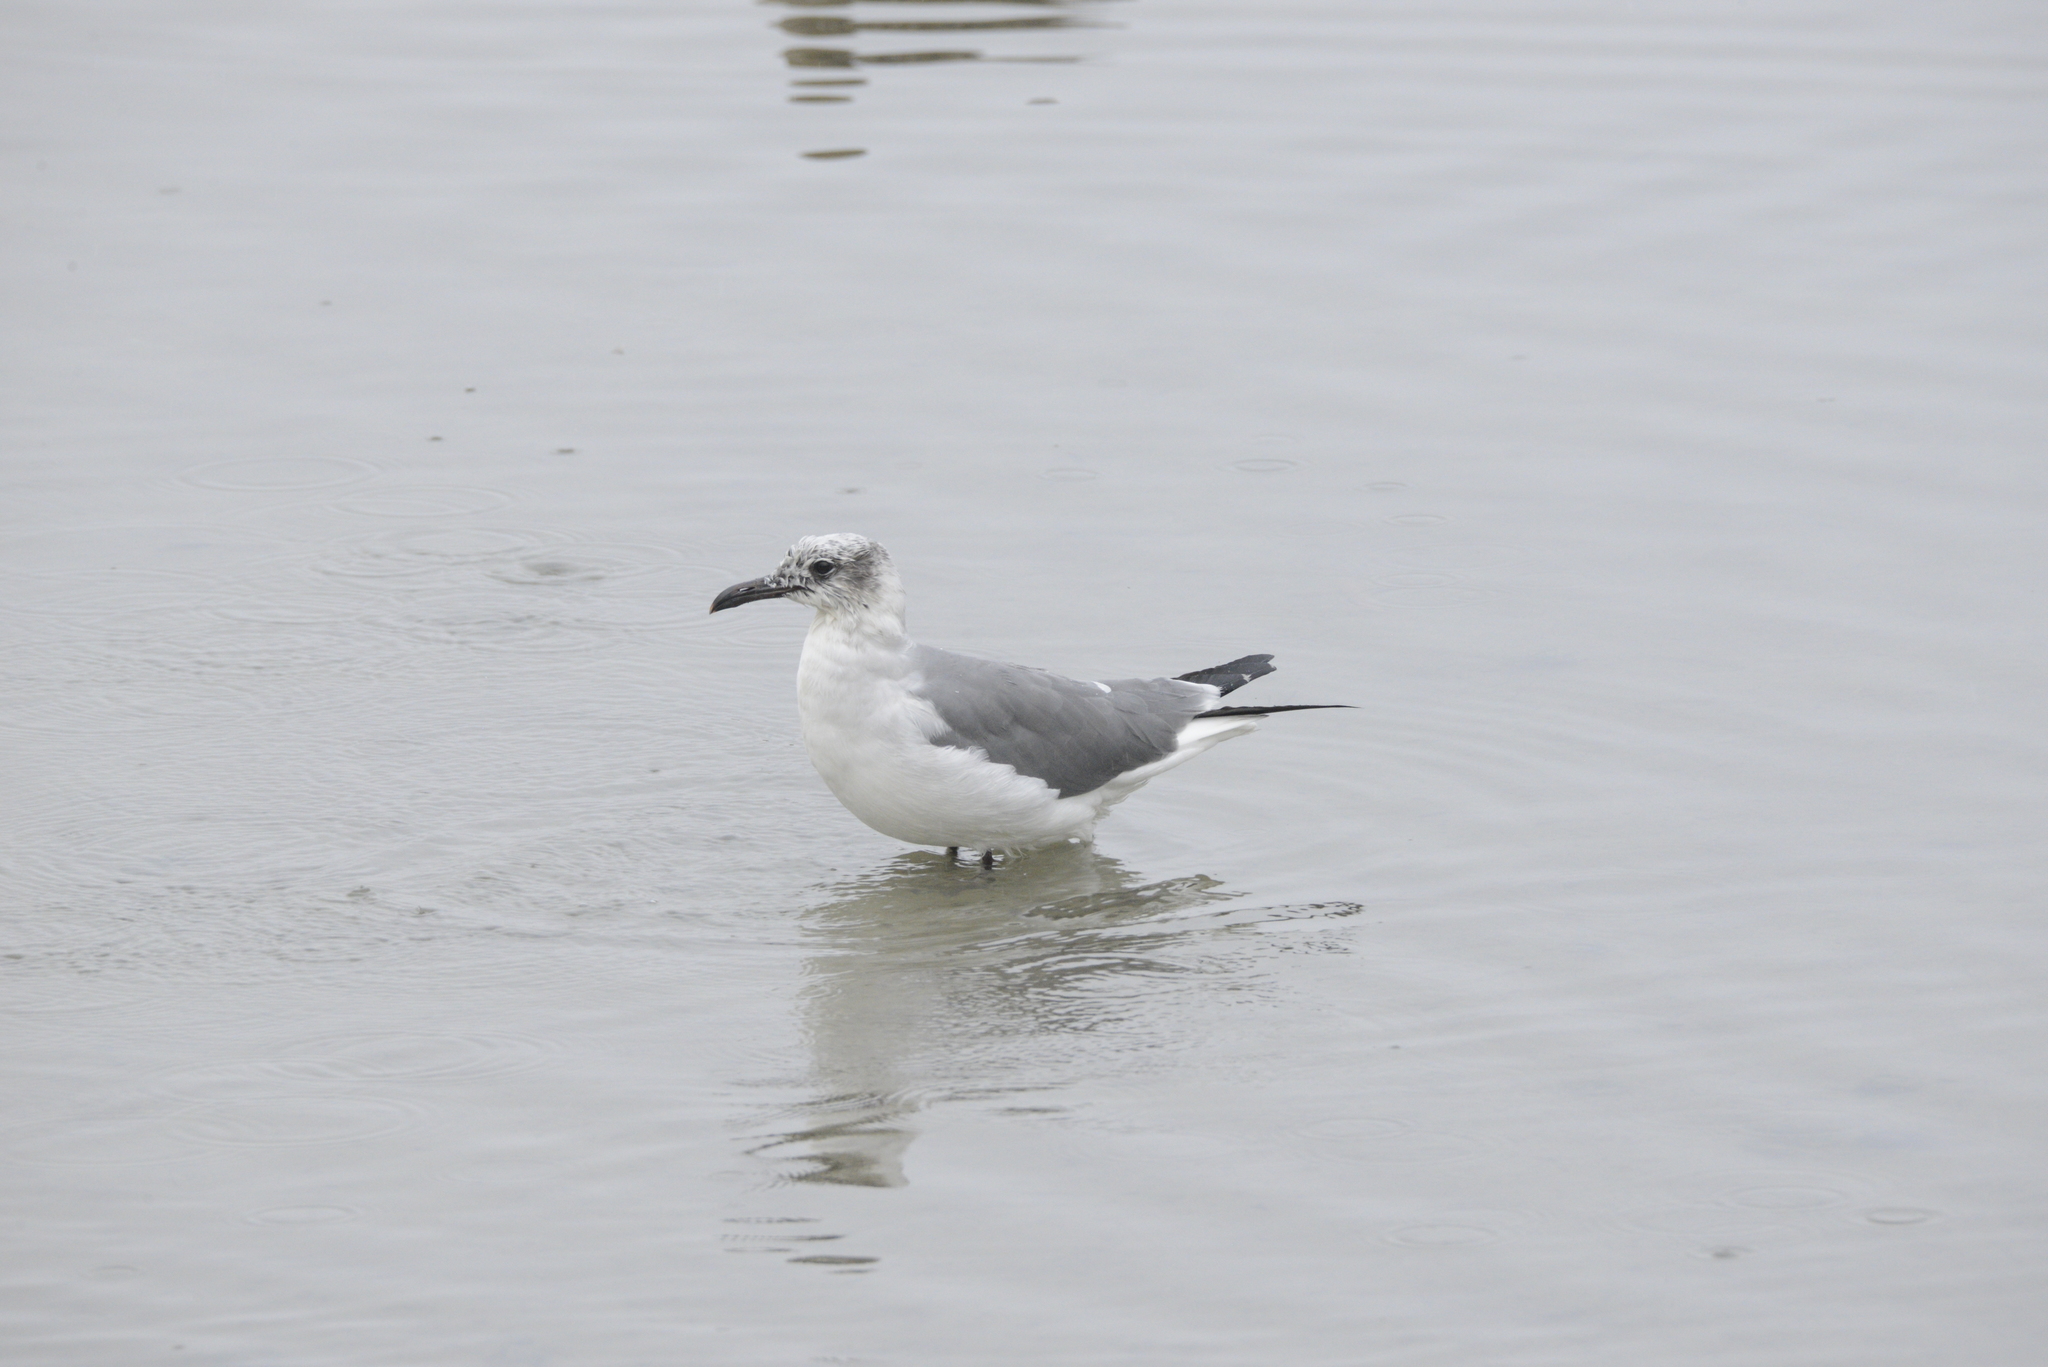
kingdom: Animalia
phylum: Chordata
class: Aves
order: Charadriiformes
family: Laridae
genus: Leucophaeus
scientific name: Leucophaeus atricilla
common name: Laughing gull
